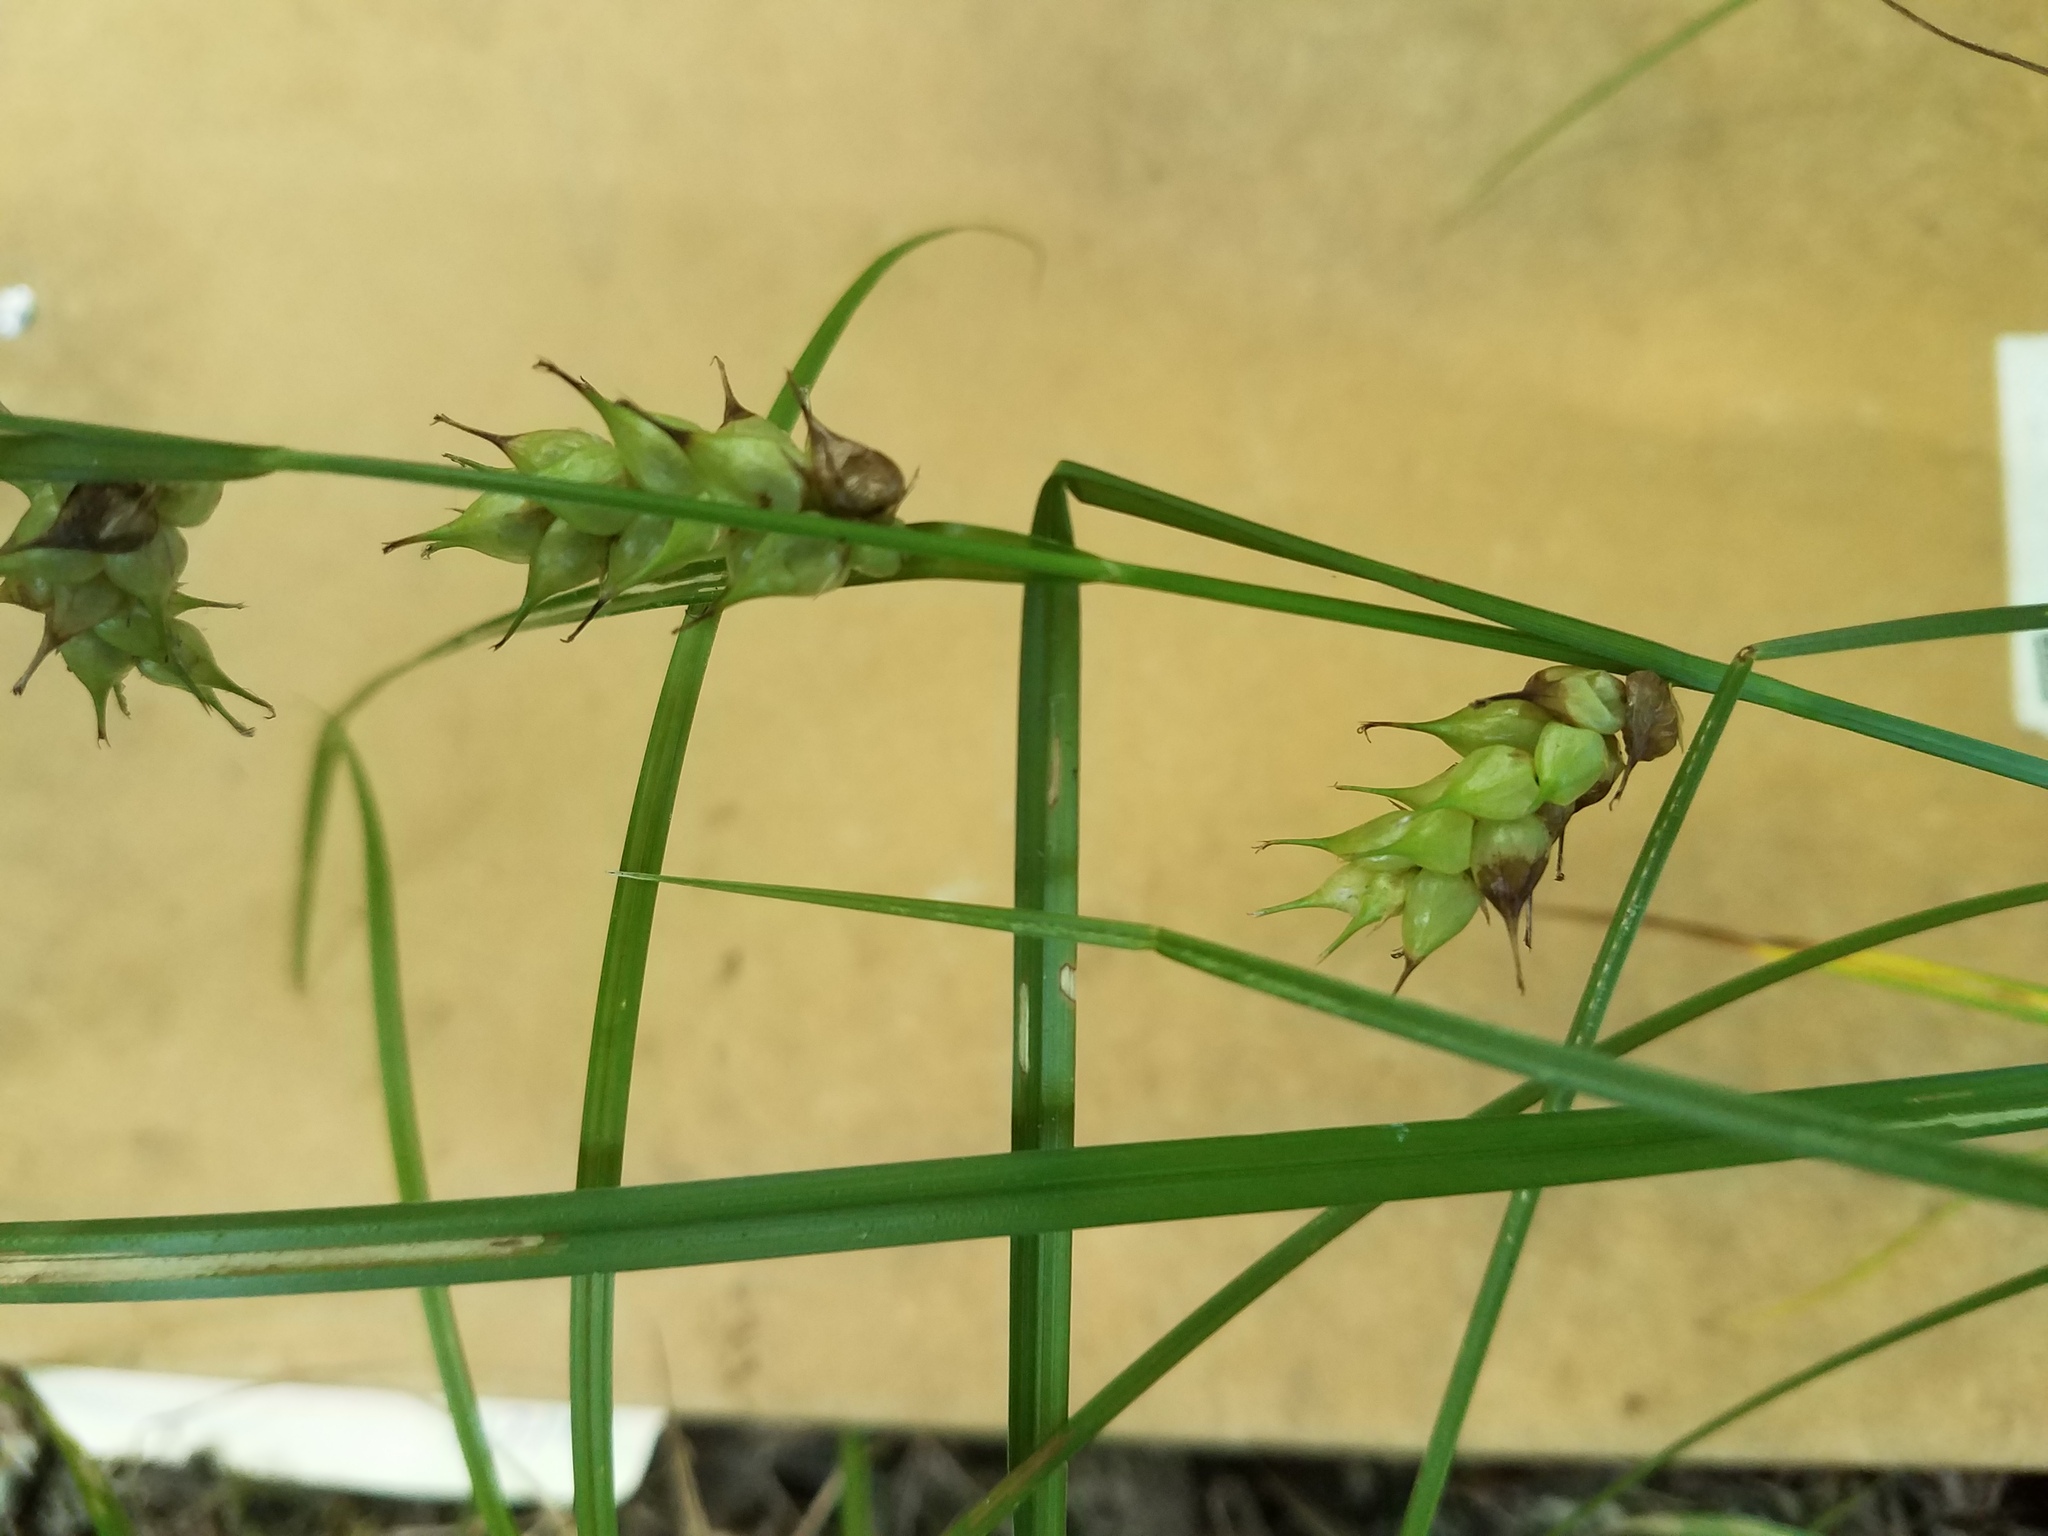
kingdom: Plantae
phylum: Tracheophyta
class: Liliopsida
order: Poales
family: Cyperaceae
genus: Carex
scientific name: Carex tuckermanii
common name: Tuckerman's sedge
